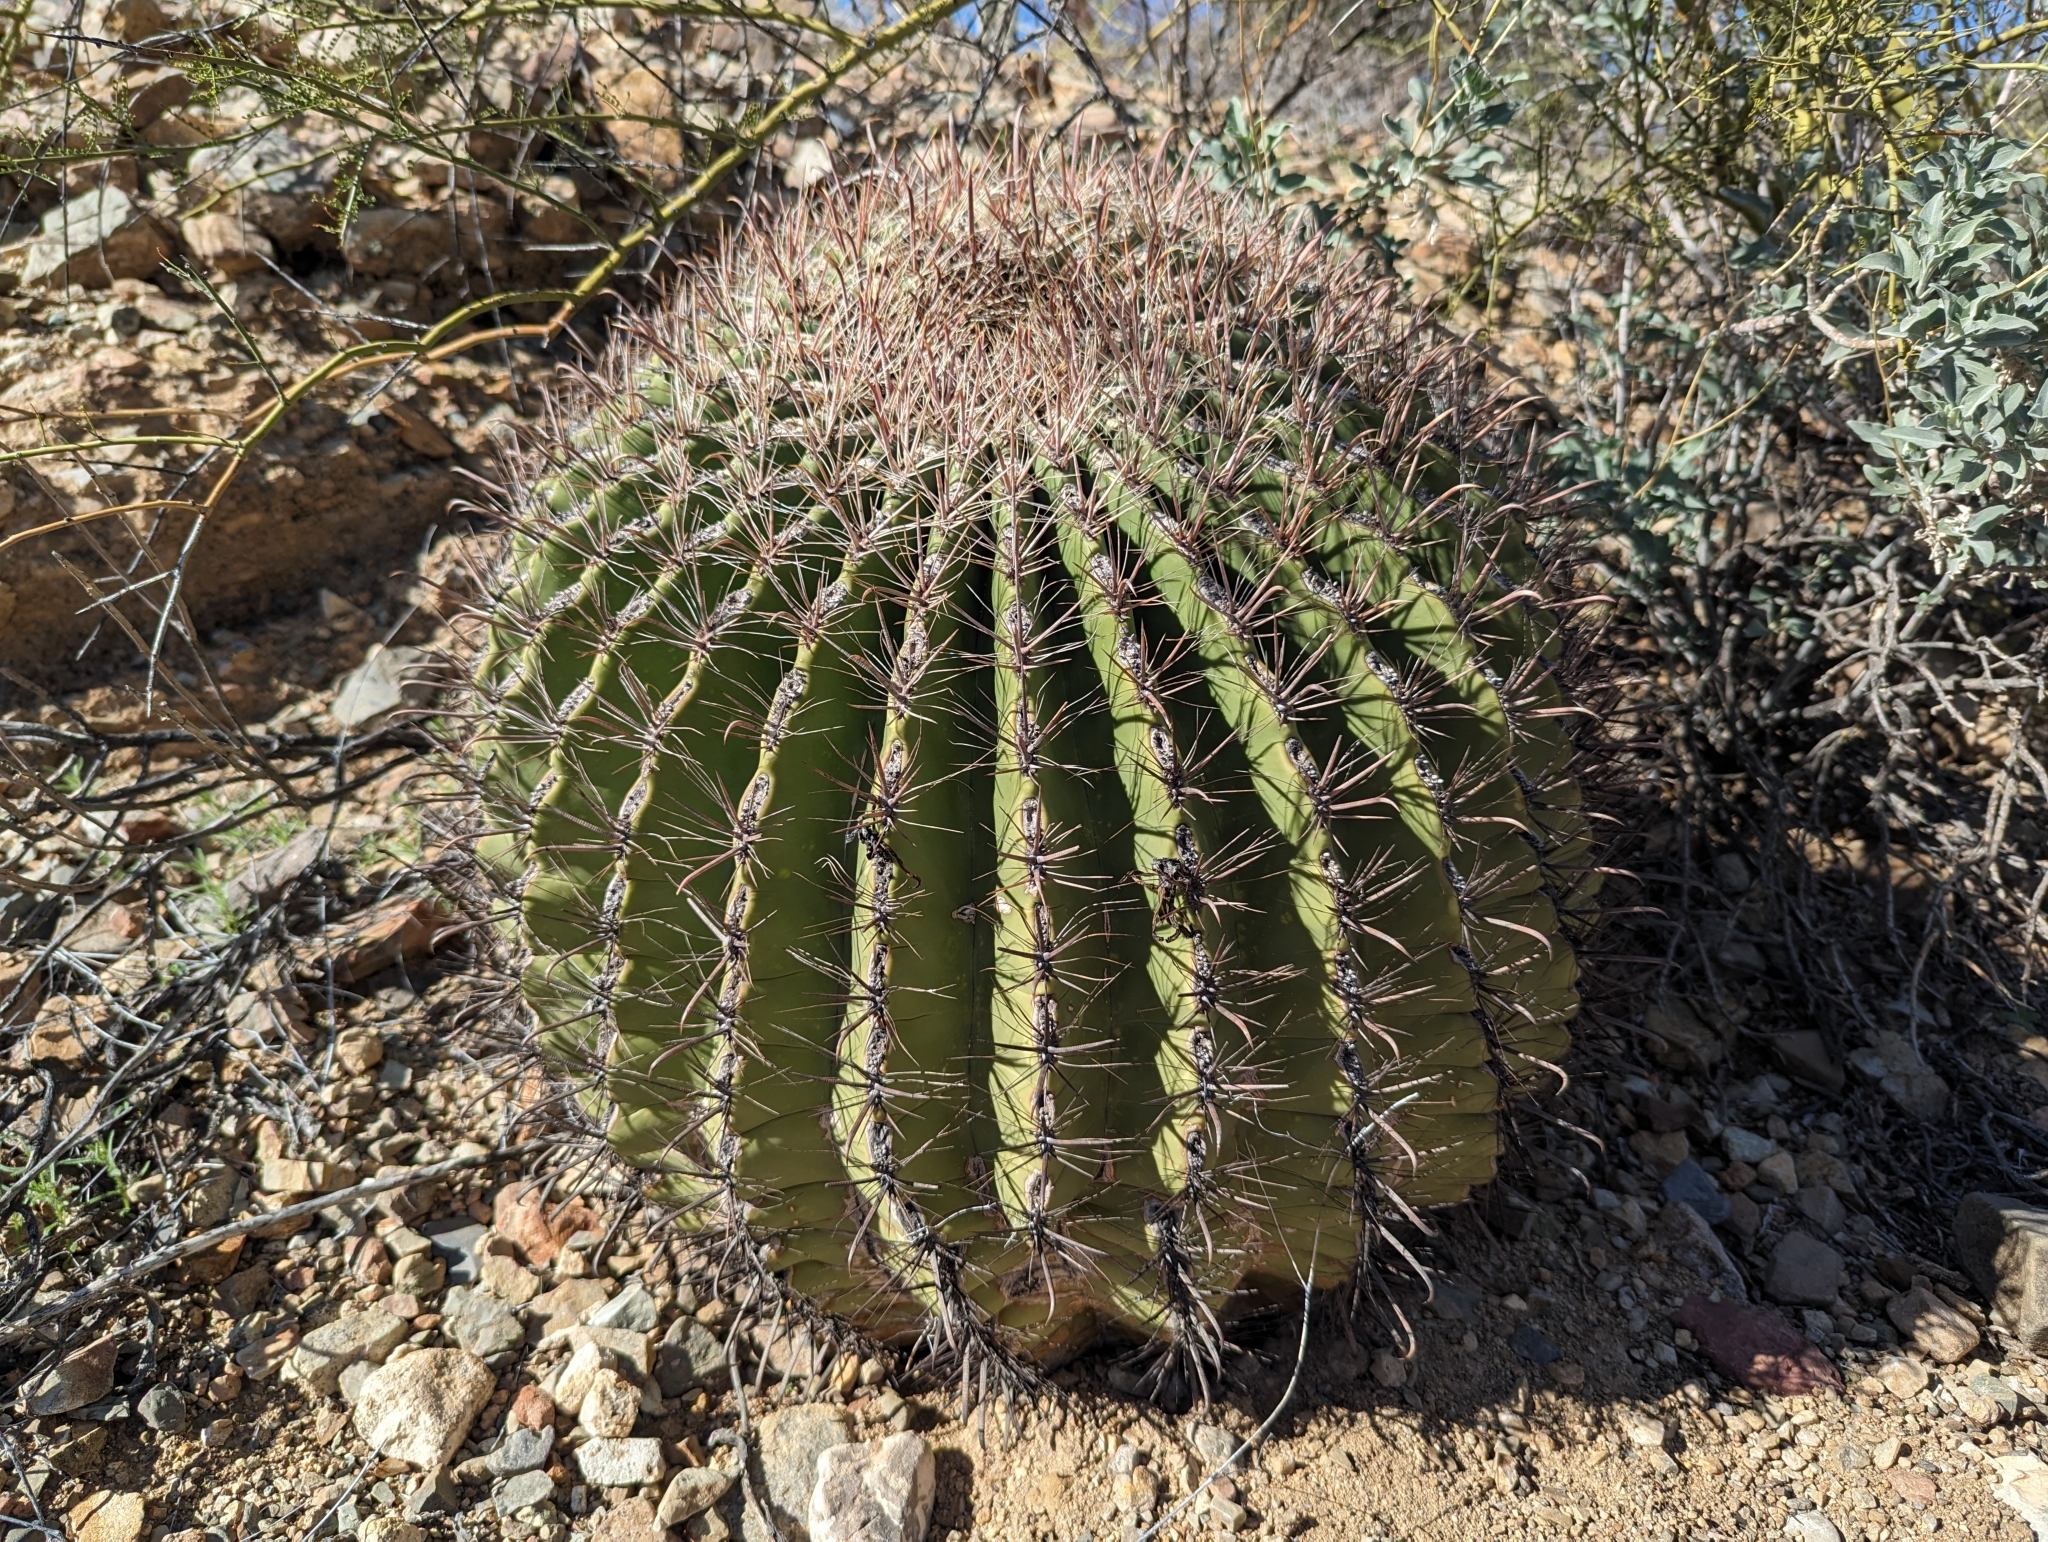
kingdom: Plantae
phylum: Tracheophyta
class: Magnoliopsida
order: Caryophyllales
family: Cactaceae
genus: Ferocactus
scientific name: Ferocactus wislizeni
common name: Candy barrel cactus
